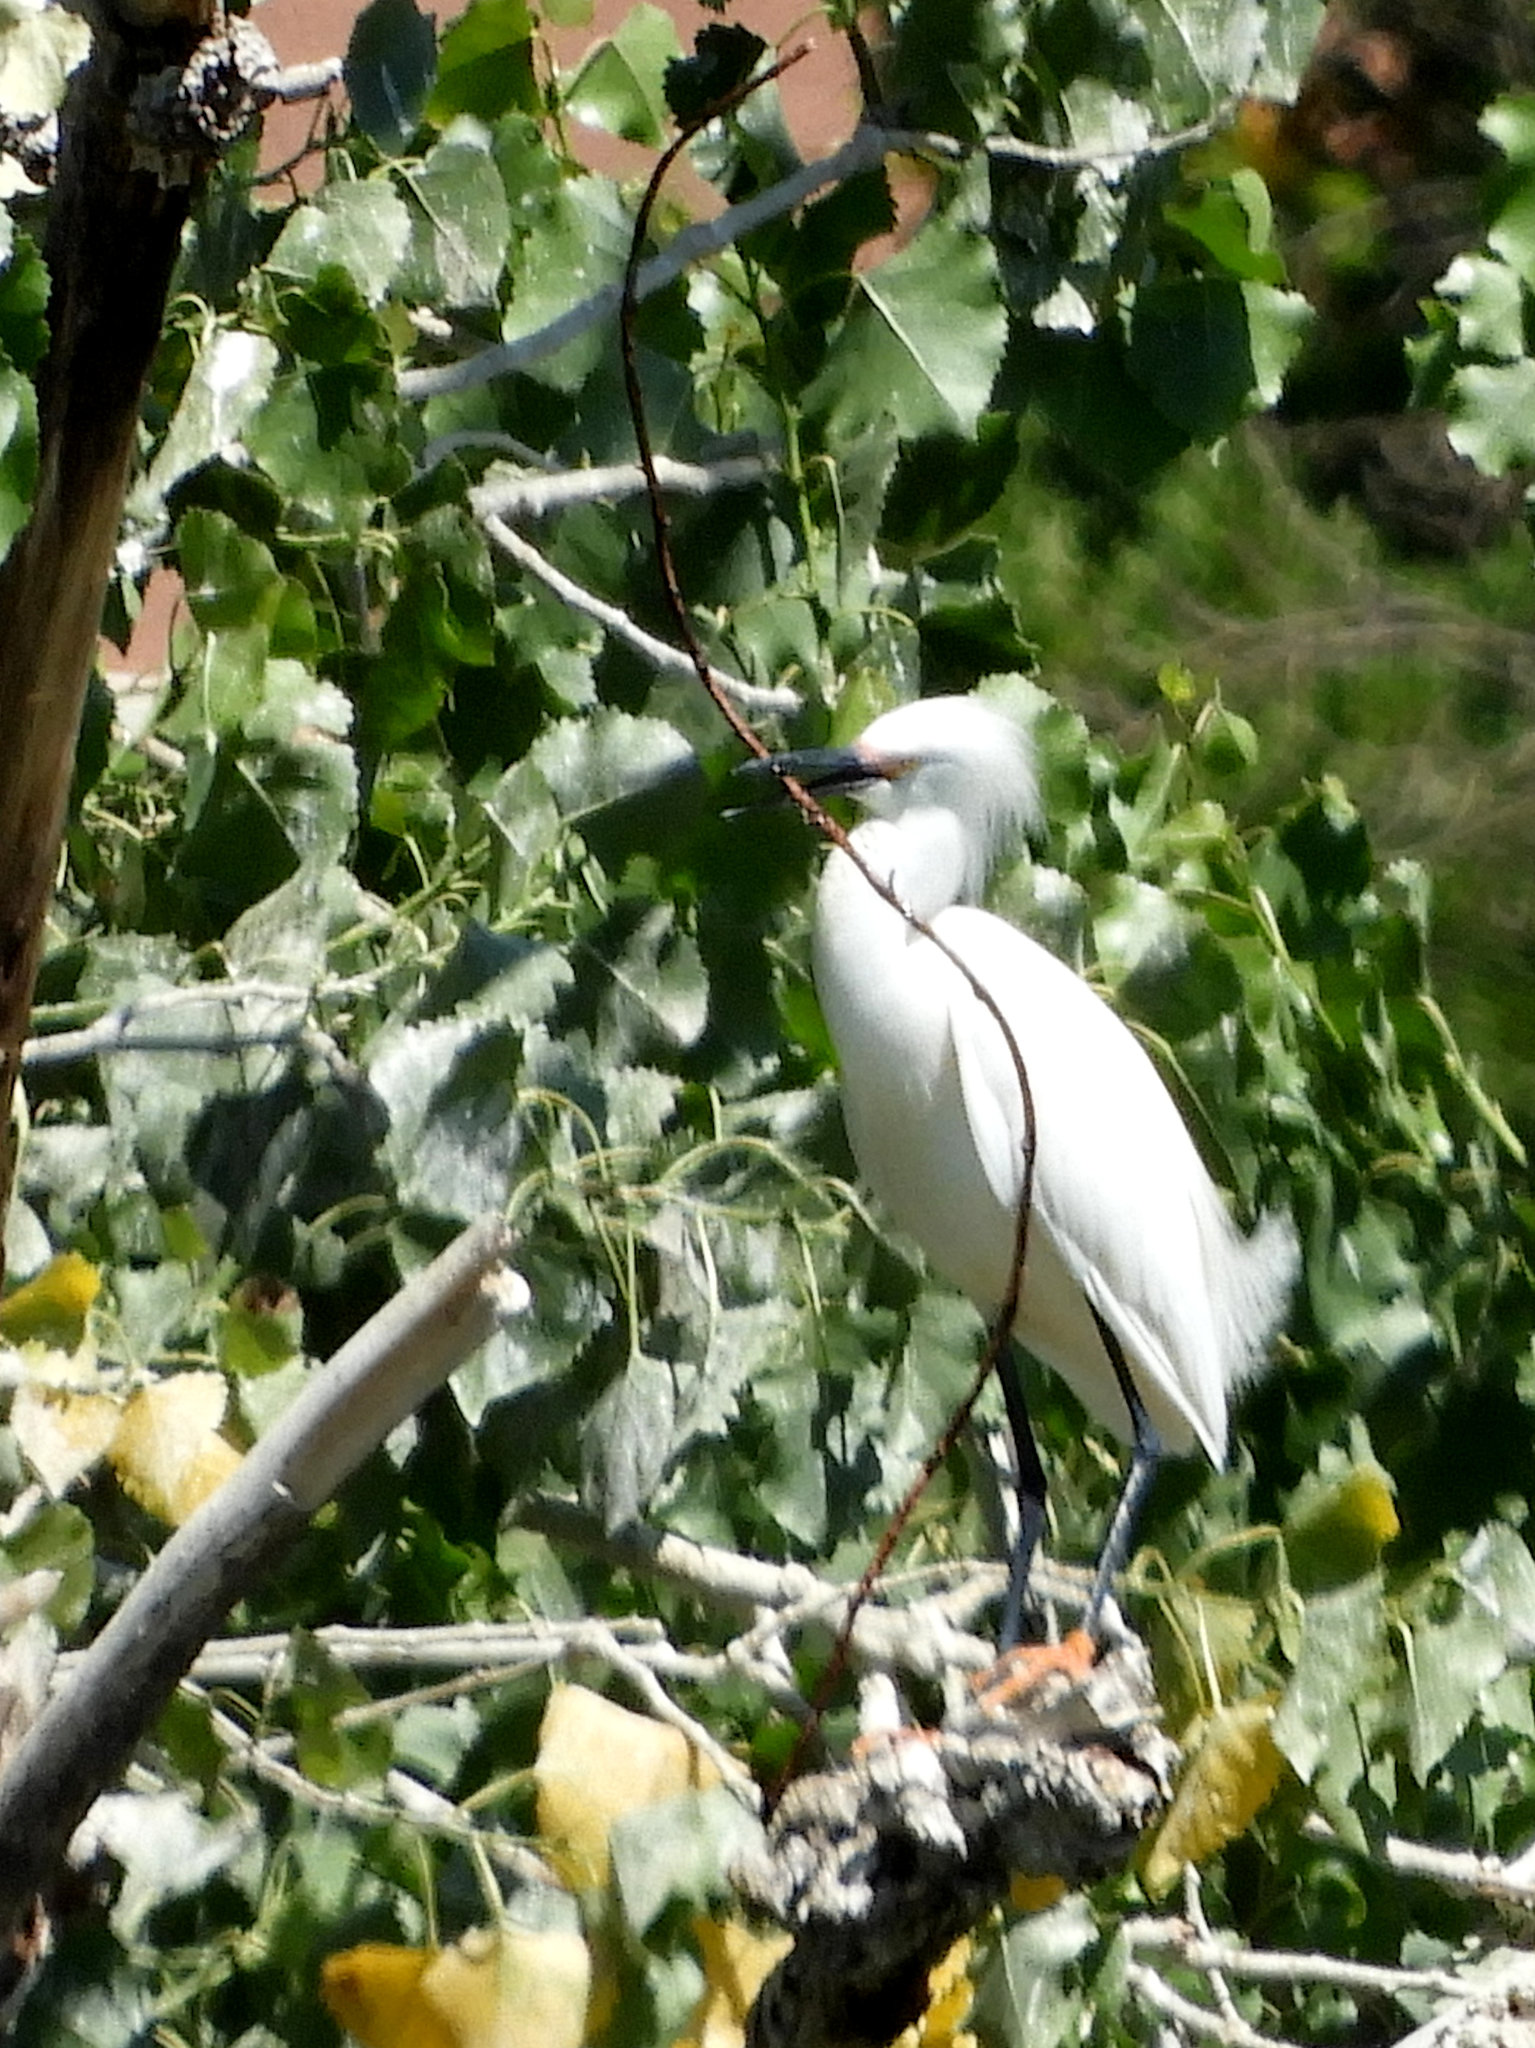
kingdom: Animalia
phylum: Chordata
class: Aves
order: Pelecaniformes
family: Ardeidae
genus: Egretta
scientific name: Egretta thula
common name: Snowy egret
